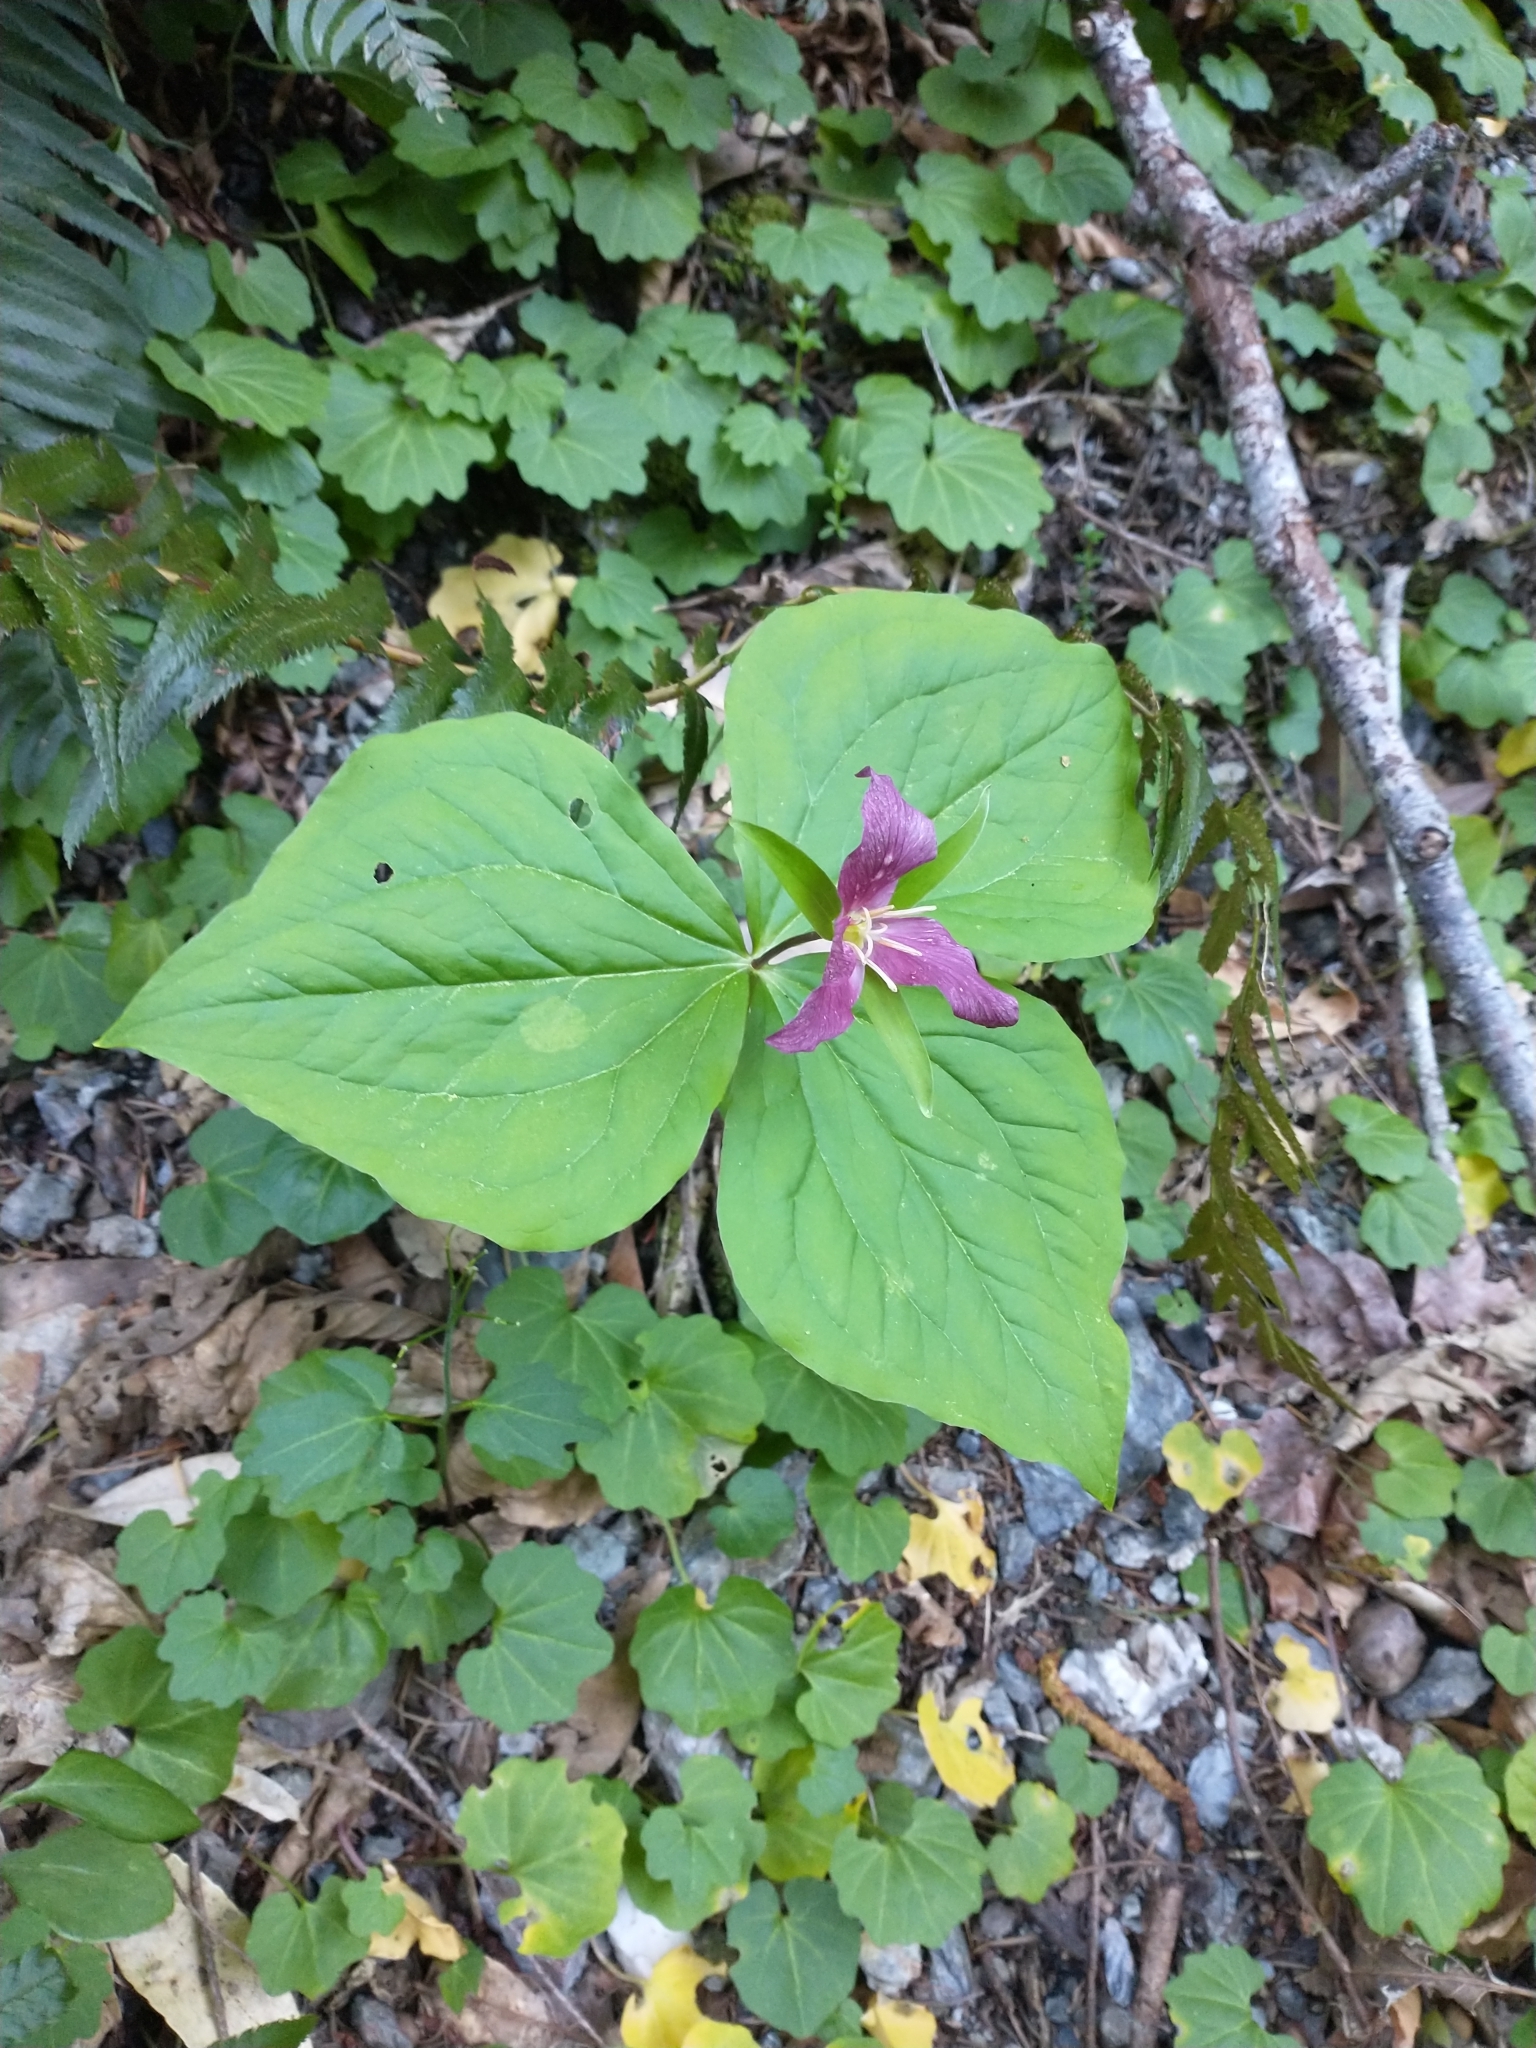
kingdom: Plantae
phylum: Tracheophyta
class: Liliopsida
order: Liliales
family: Melanthiaceae
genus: Trillium
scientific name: Trillium ovatum
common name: Pacific trillium
